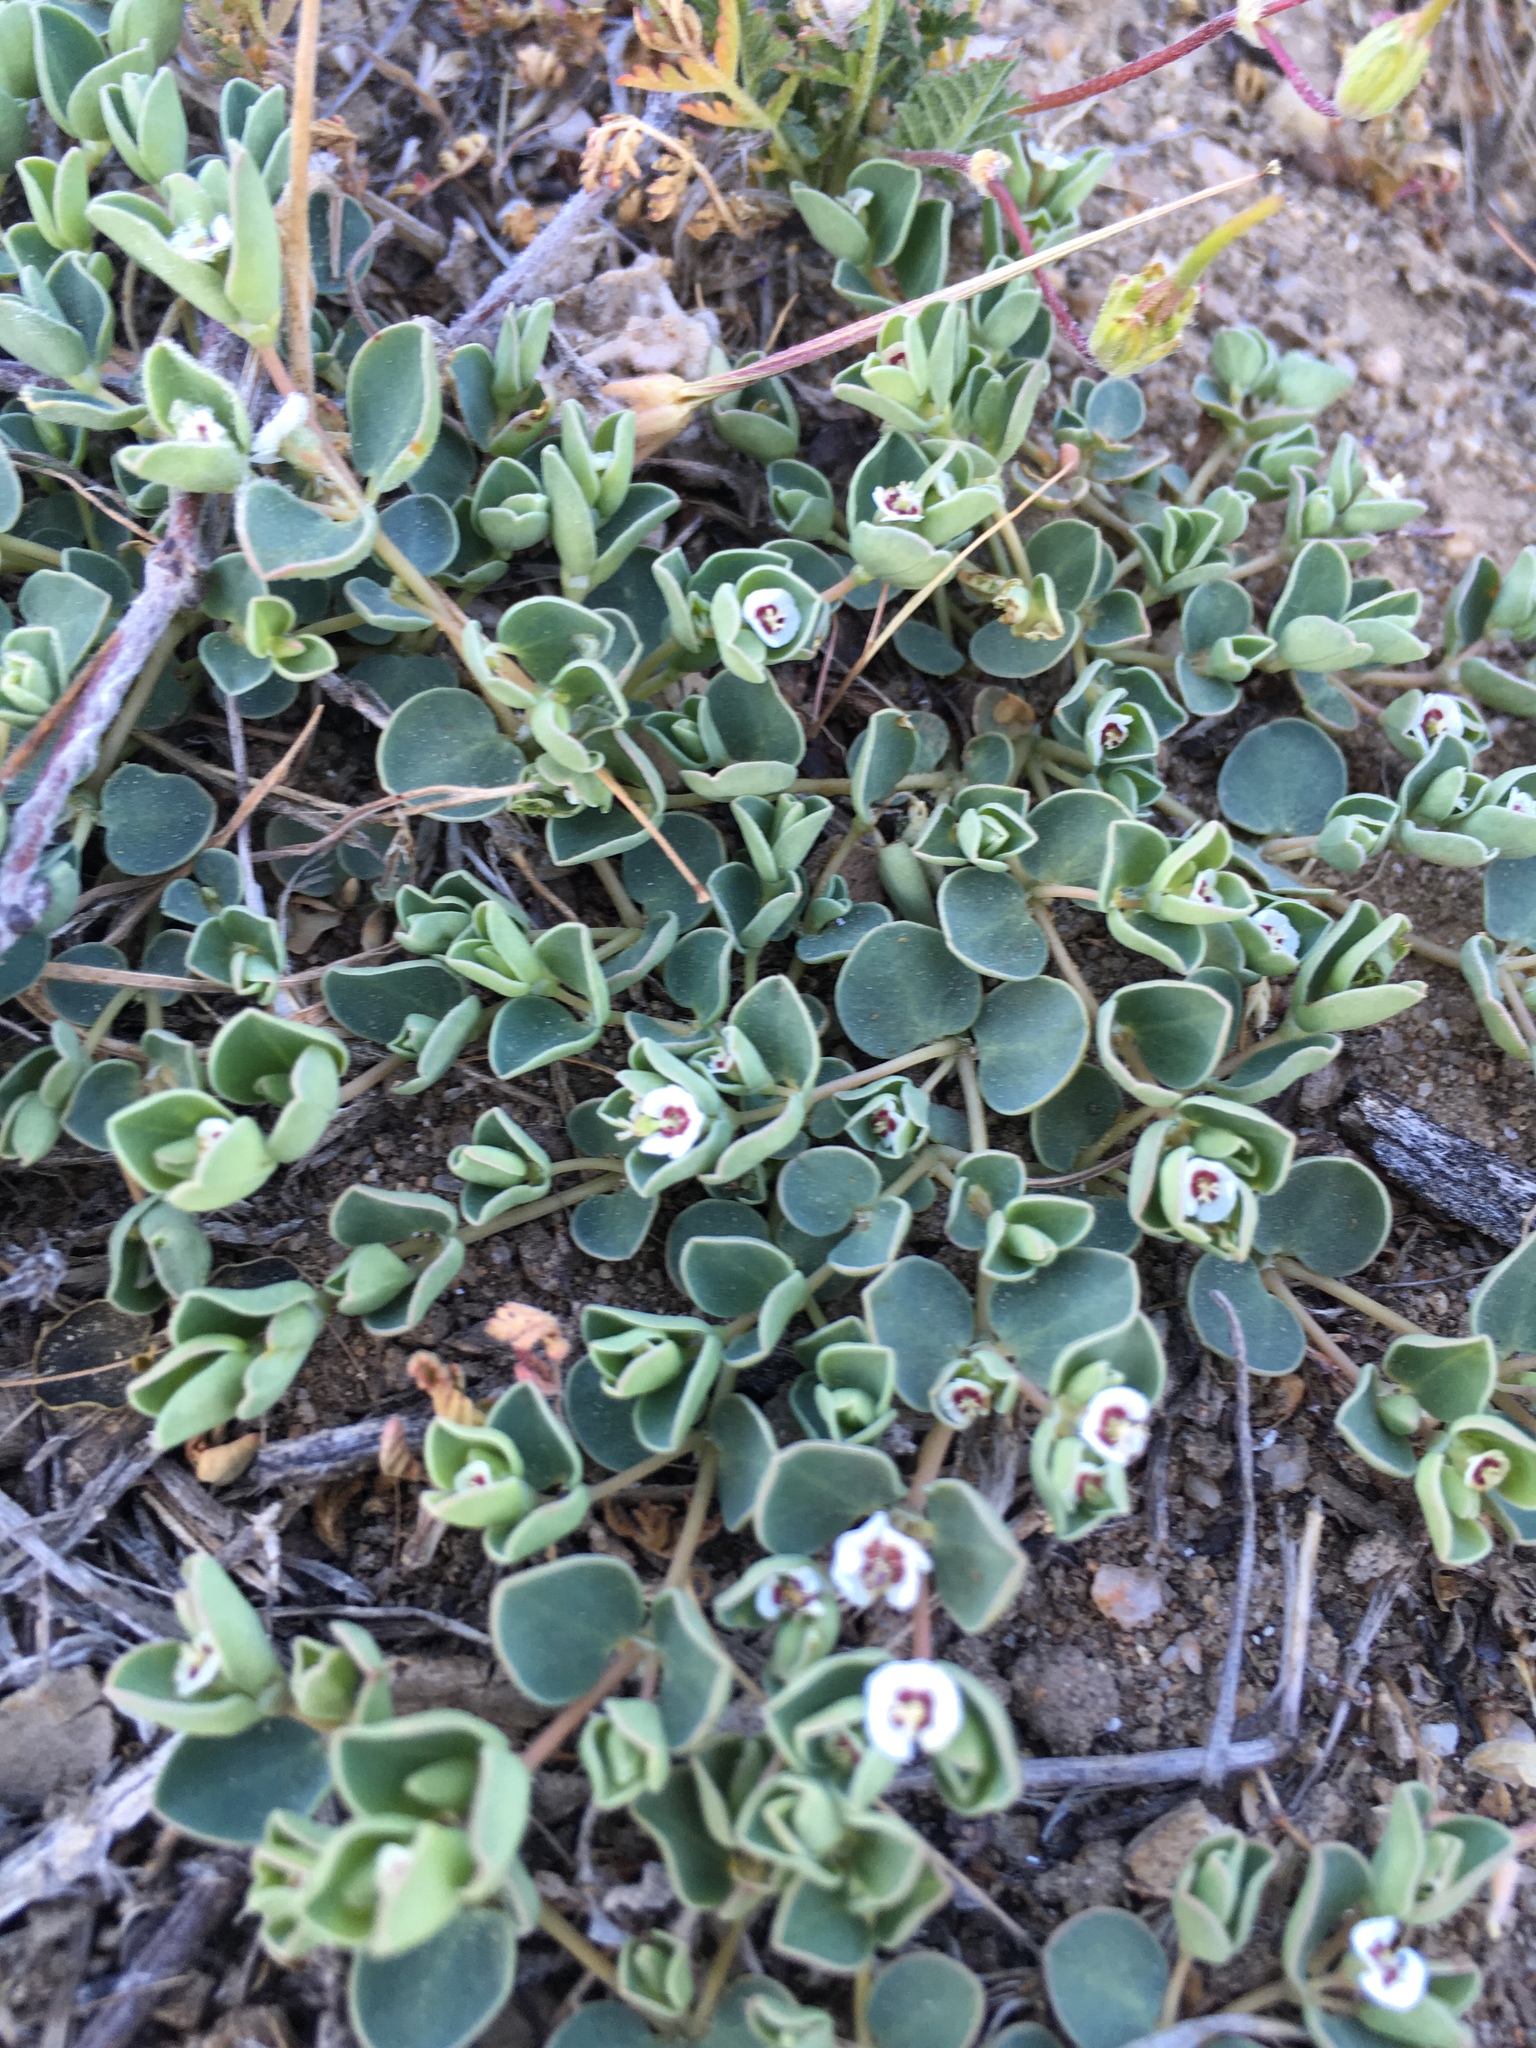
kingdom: Plantae
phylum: Tracheophyta
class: Magnoliopsida
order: Malpighiales
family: Euphorbiaceae
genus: Euphorbia
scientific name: Euphorbia albomarginata
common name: Whitemargin sandmat
